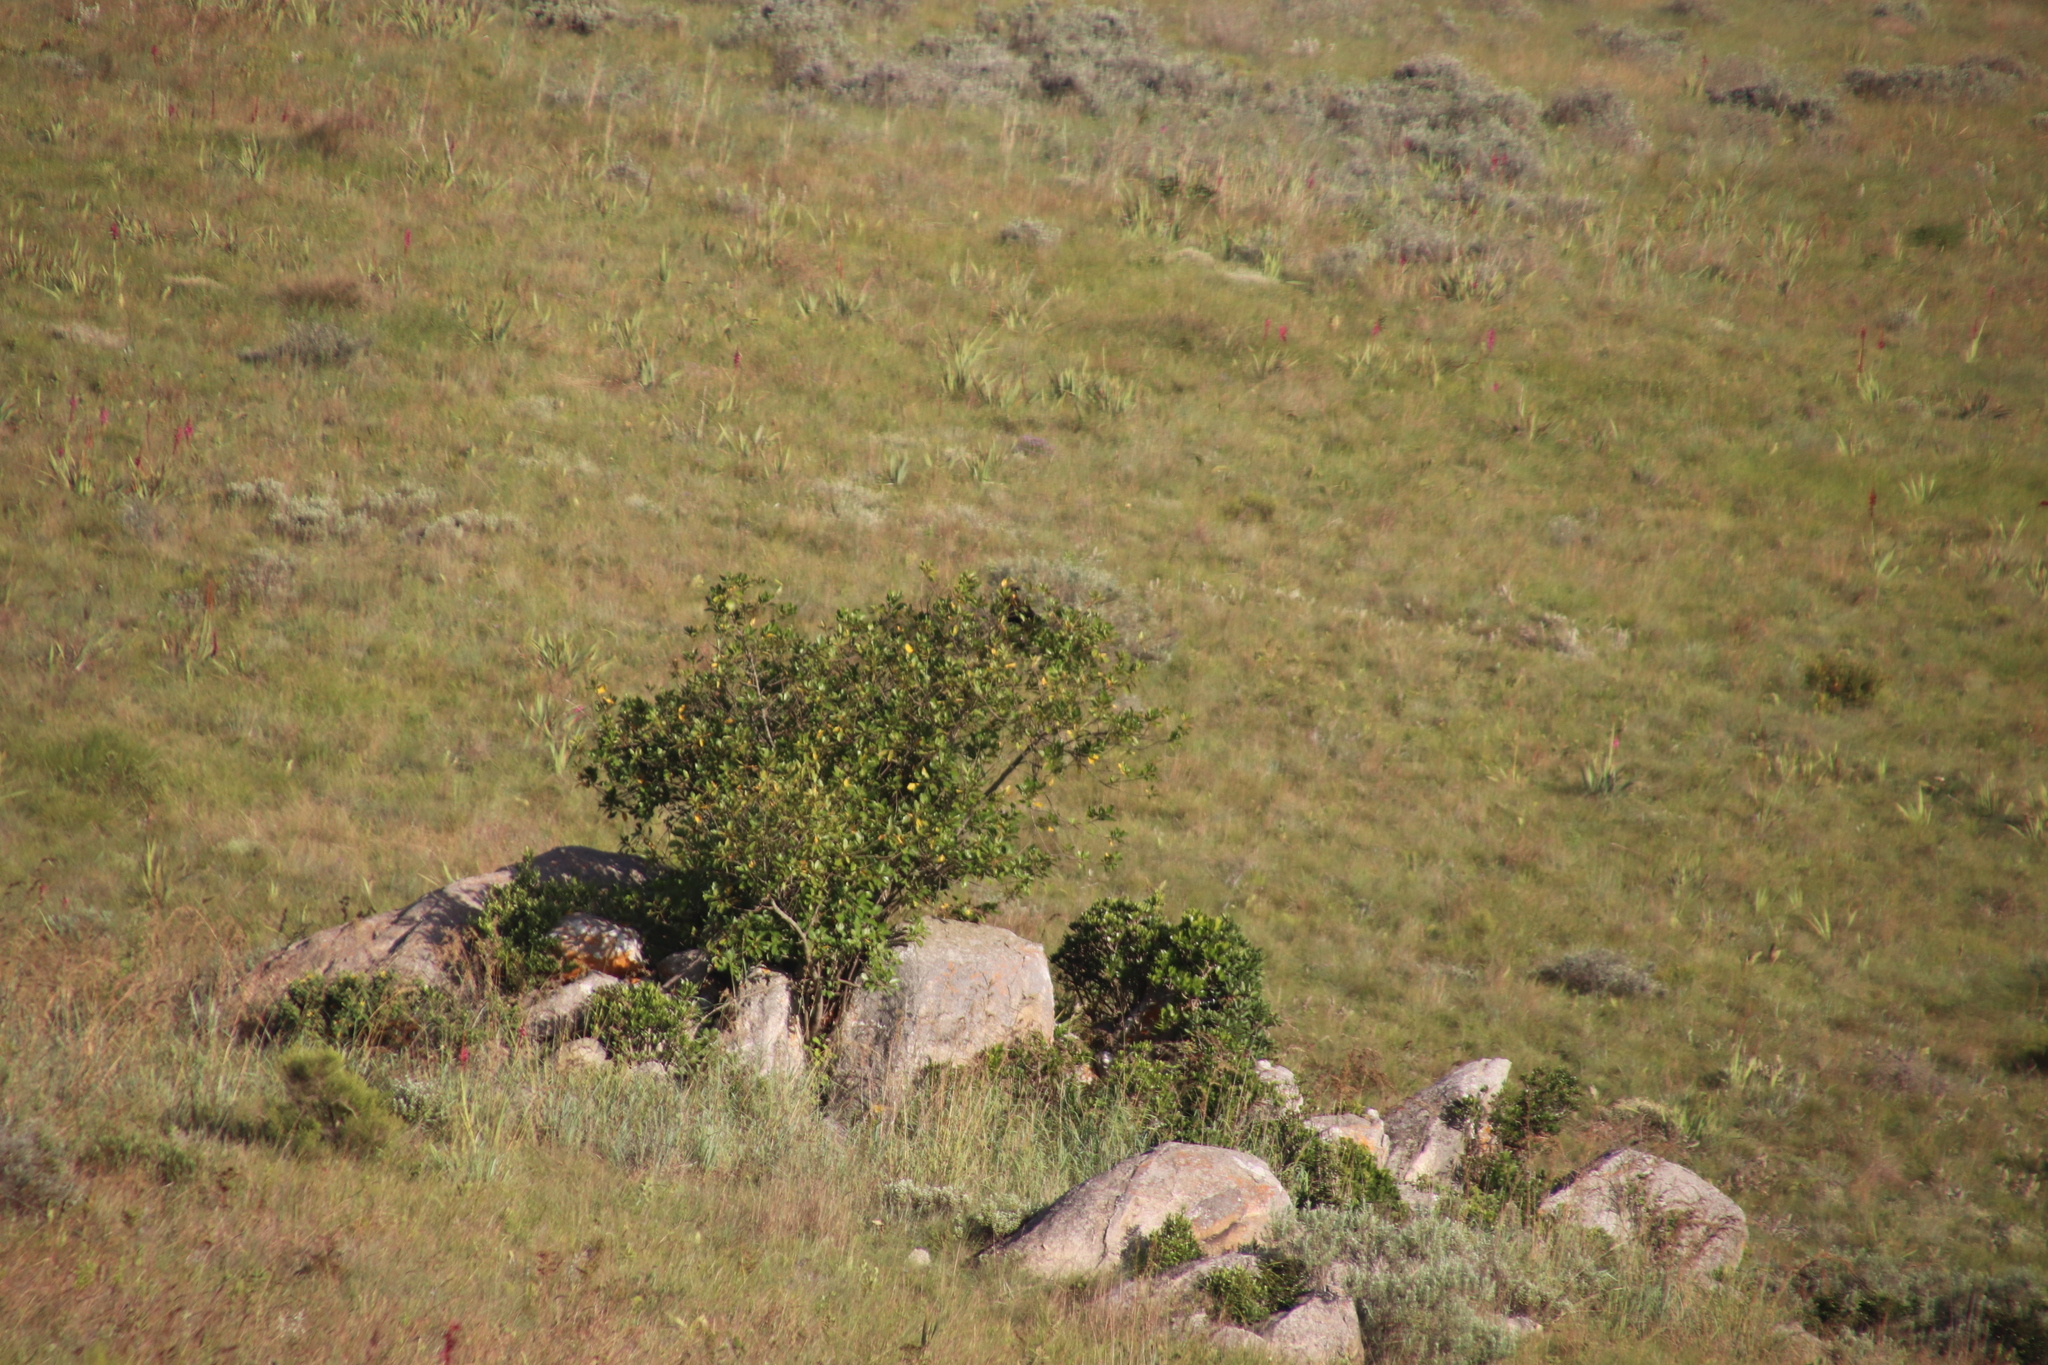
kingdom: Plantae
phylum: Tracheophyta
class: Magnoliopsida
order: Ericales
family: Primulaceae
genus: Maesa
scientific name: Maesa lanceolata
